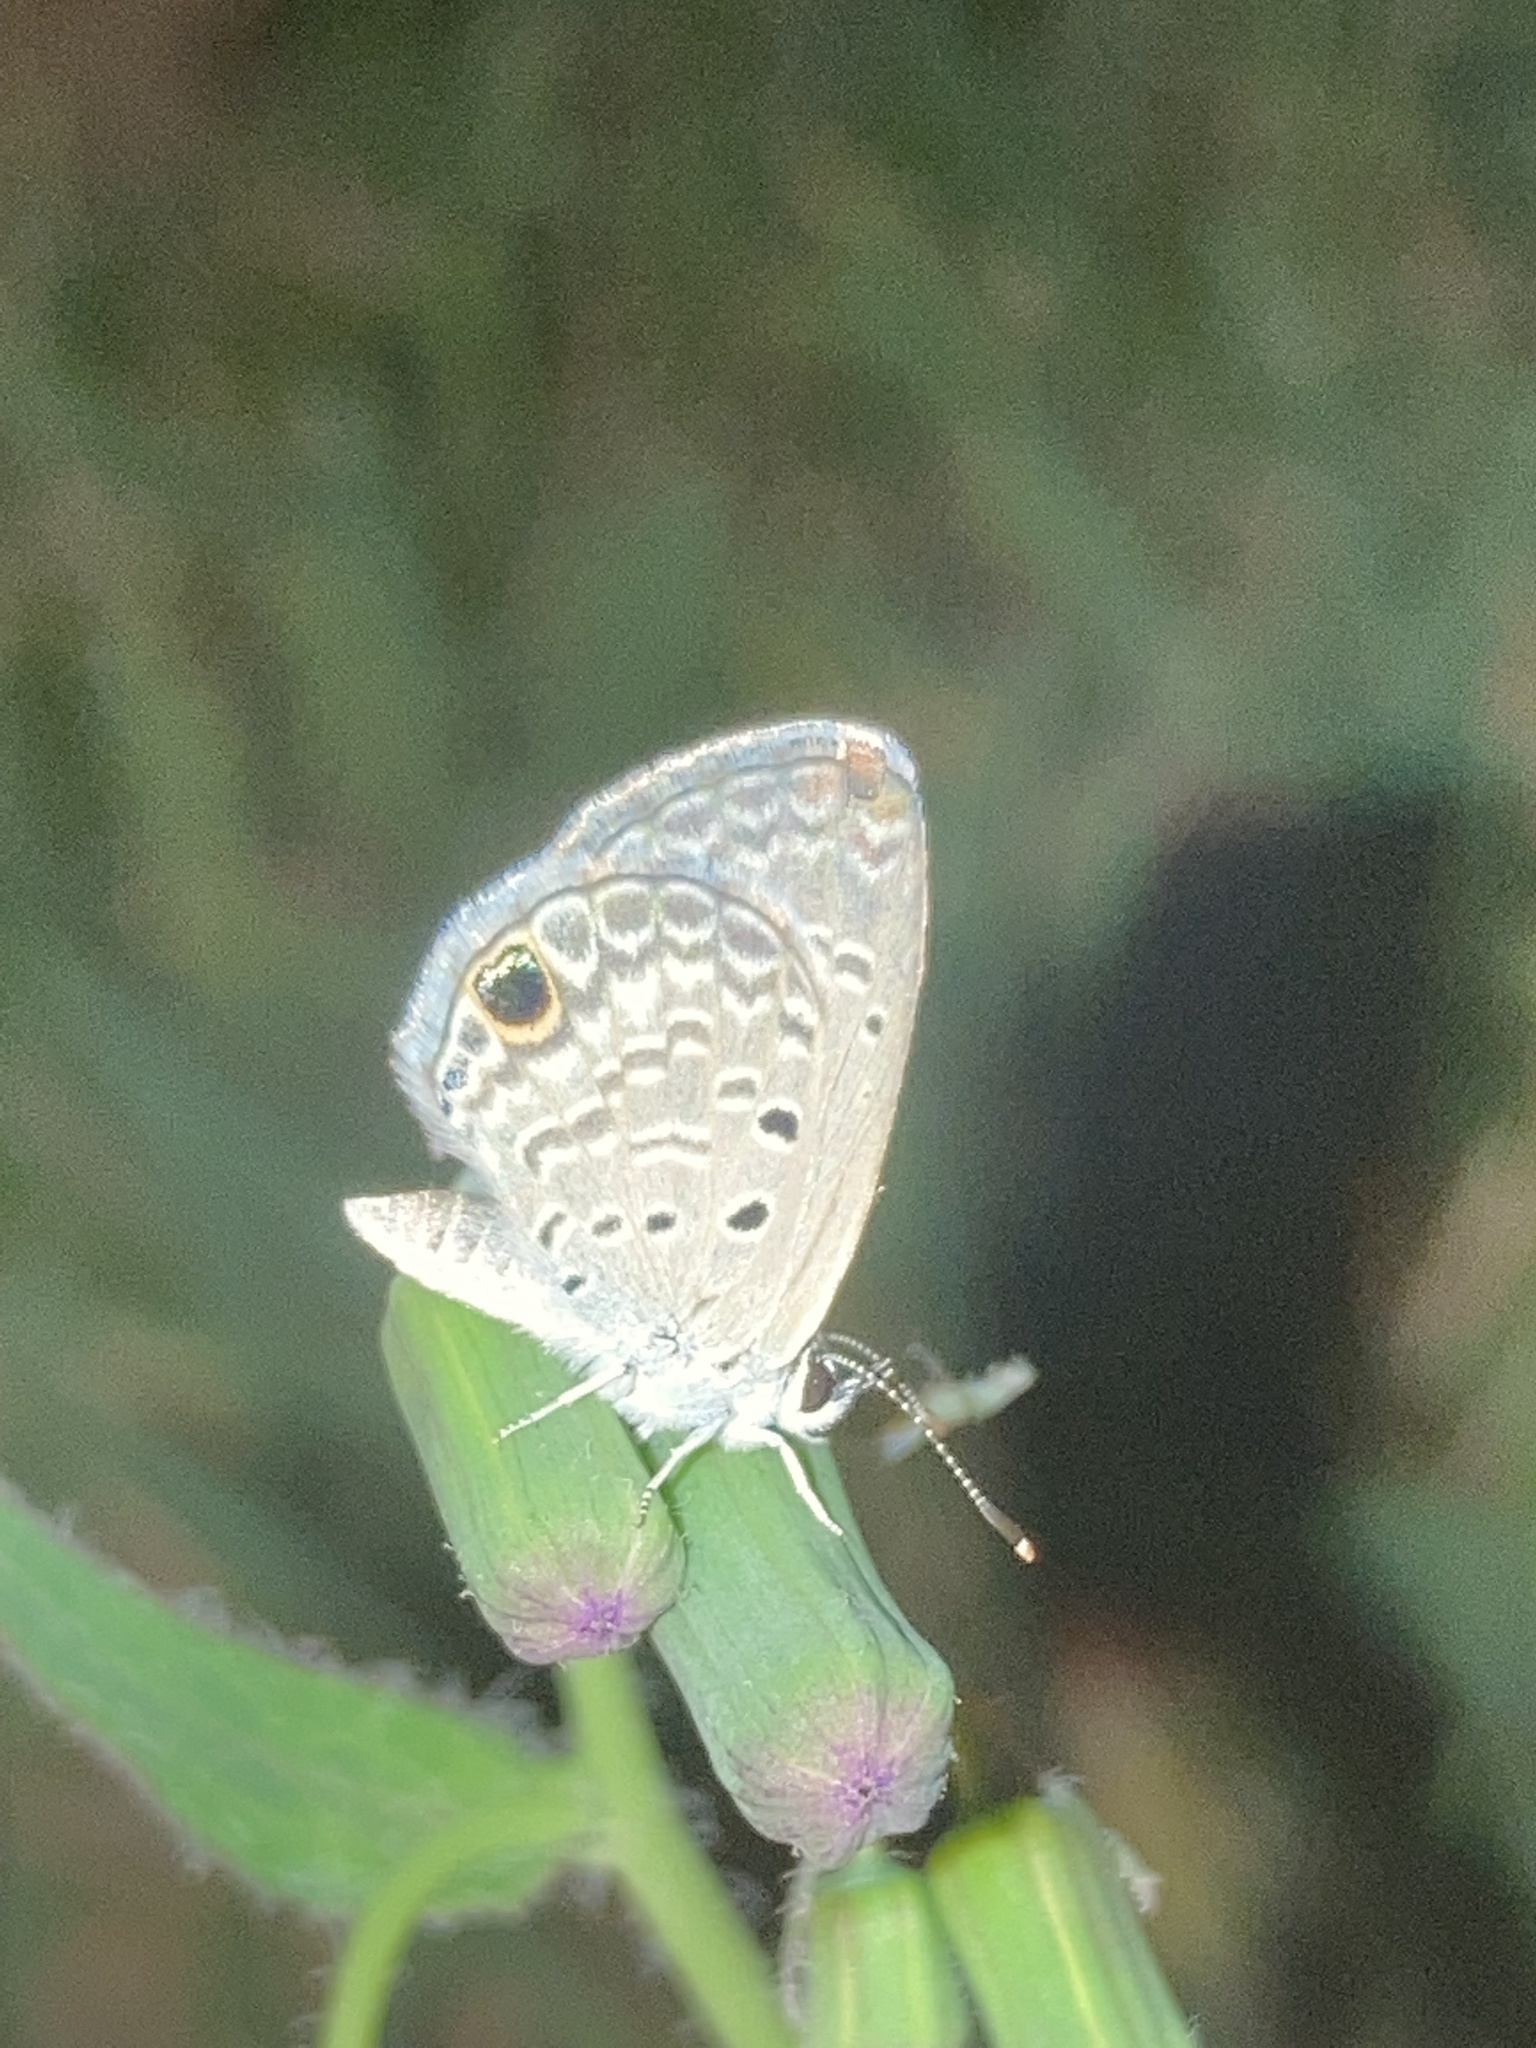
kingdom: Animalia
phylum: Arthropoda
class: Insecta
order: Lepidoptera
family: Lycaenidae
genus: Hemiargus
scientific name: Hemiargus ceraunus
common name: Ceraunus blue
